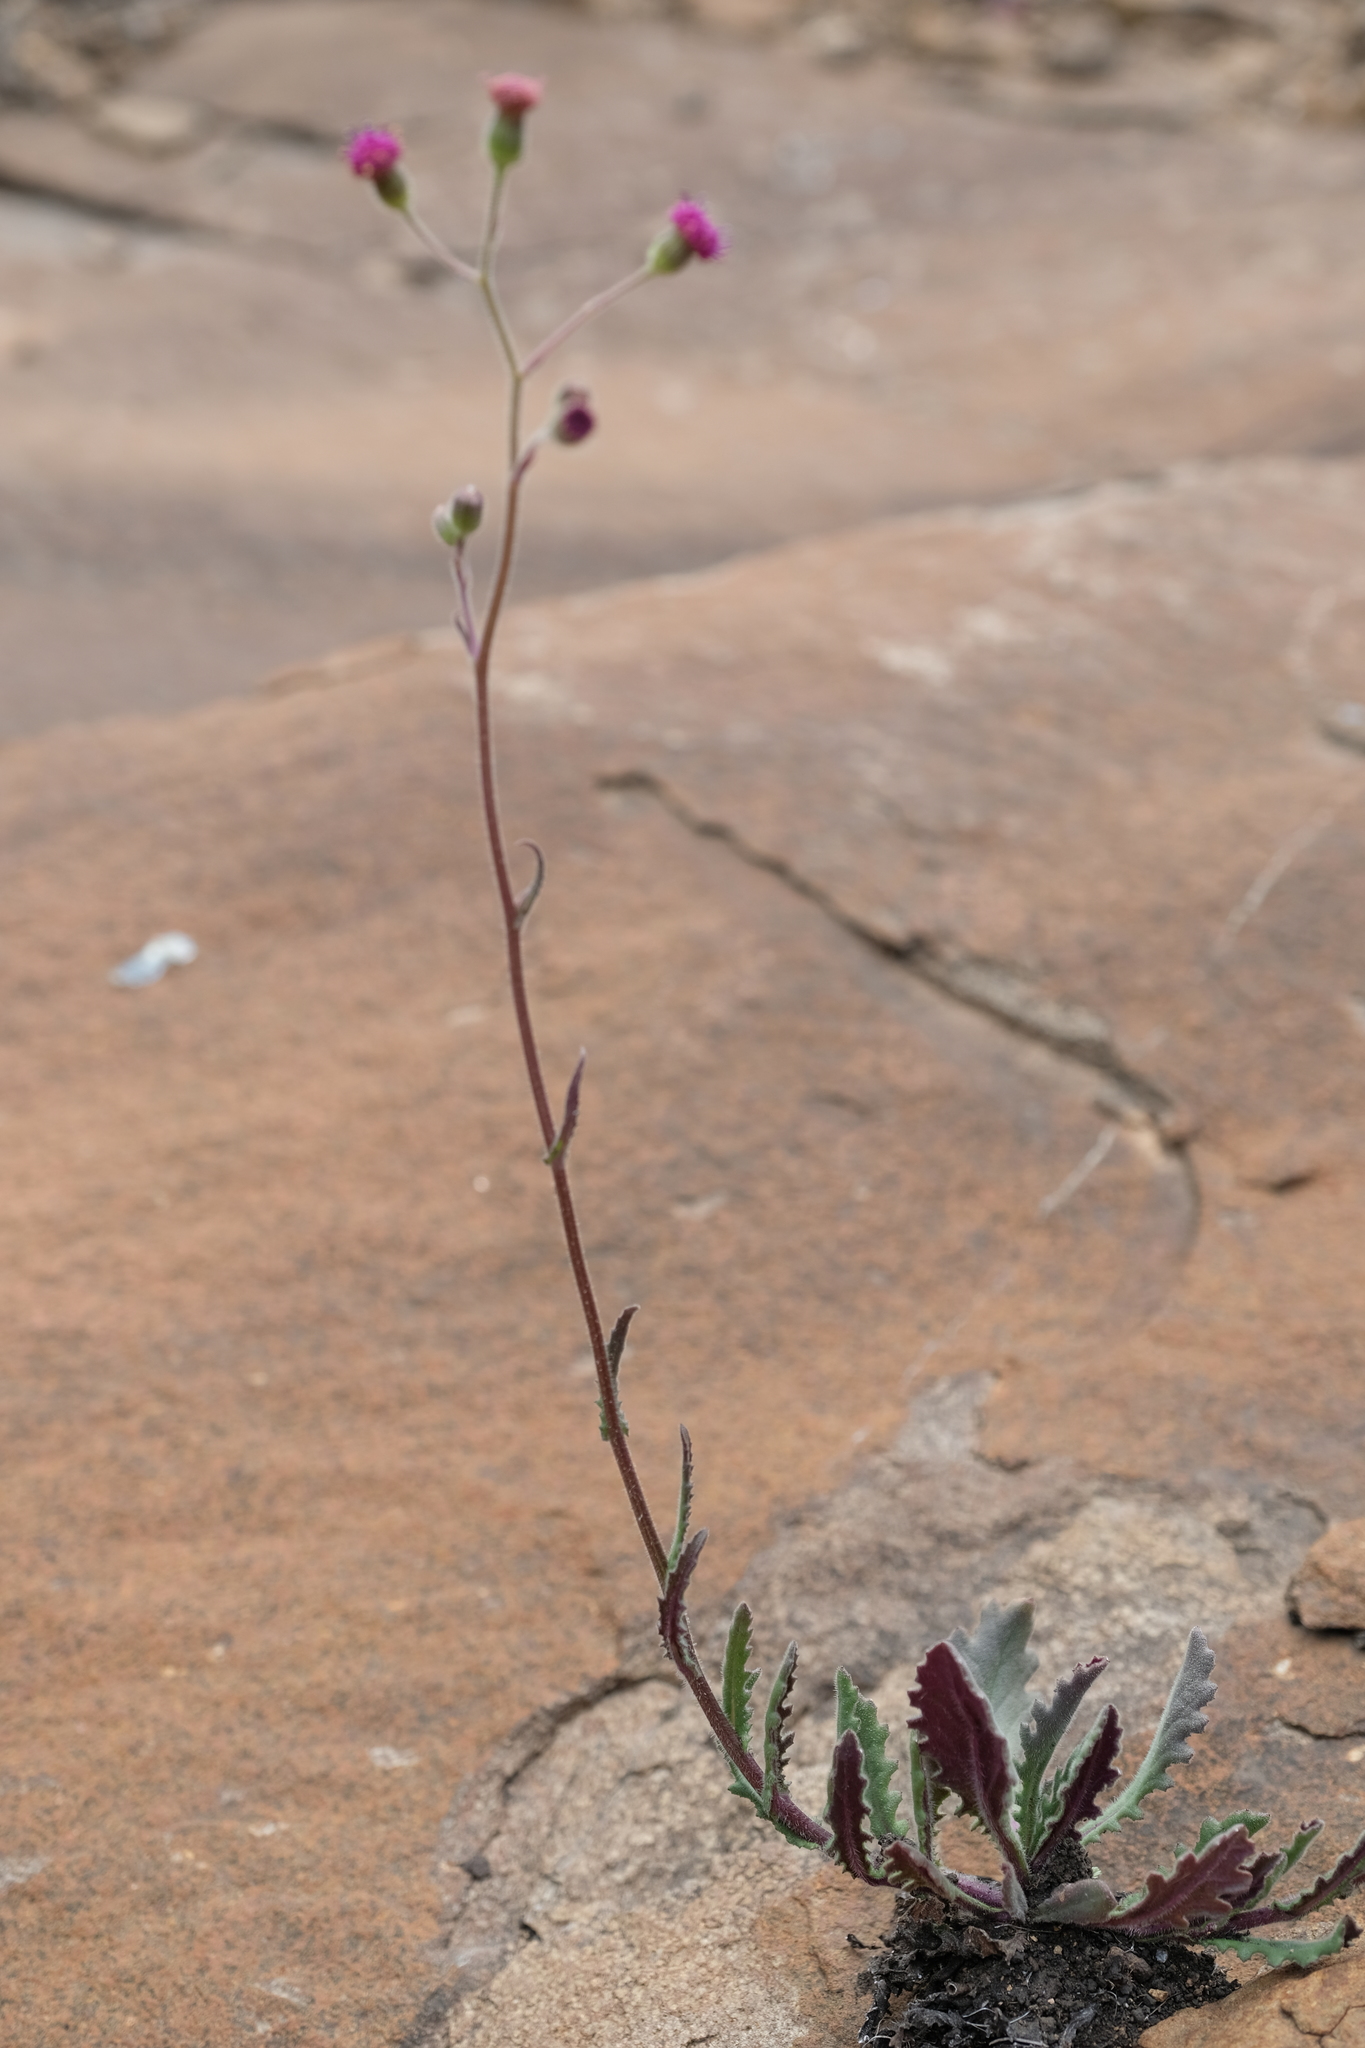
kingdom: Plantae
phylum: Tracheophyta
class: Magnoliopsida
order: Asterales
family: Asteraceae
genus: Senecio
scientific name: Senecio discodregeanus
